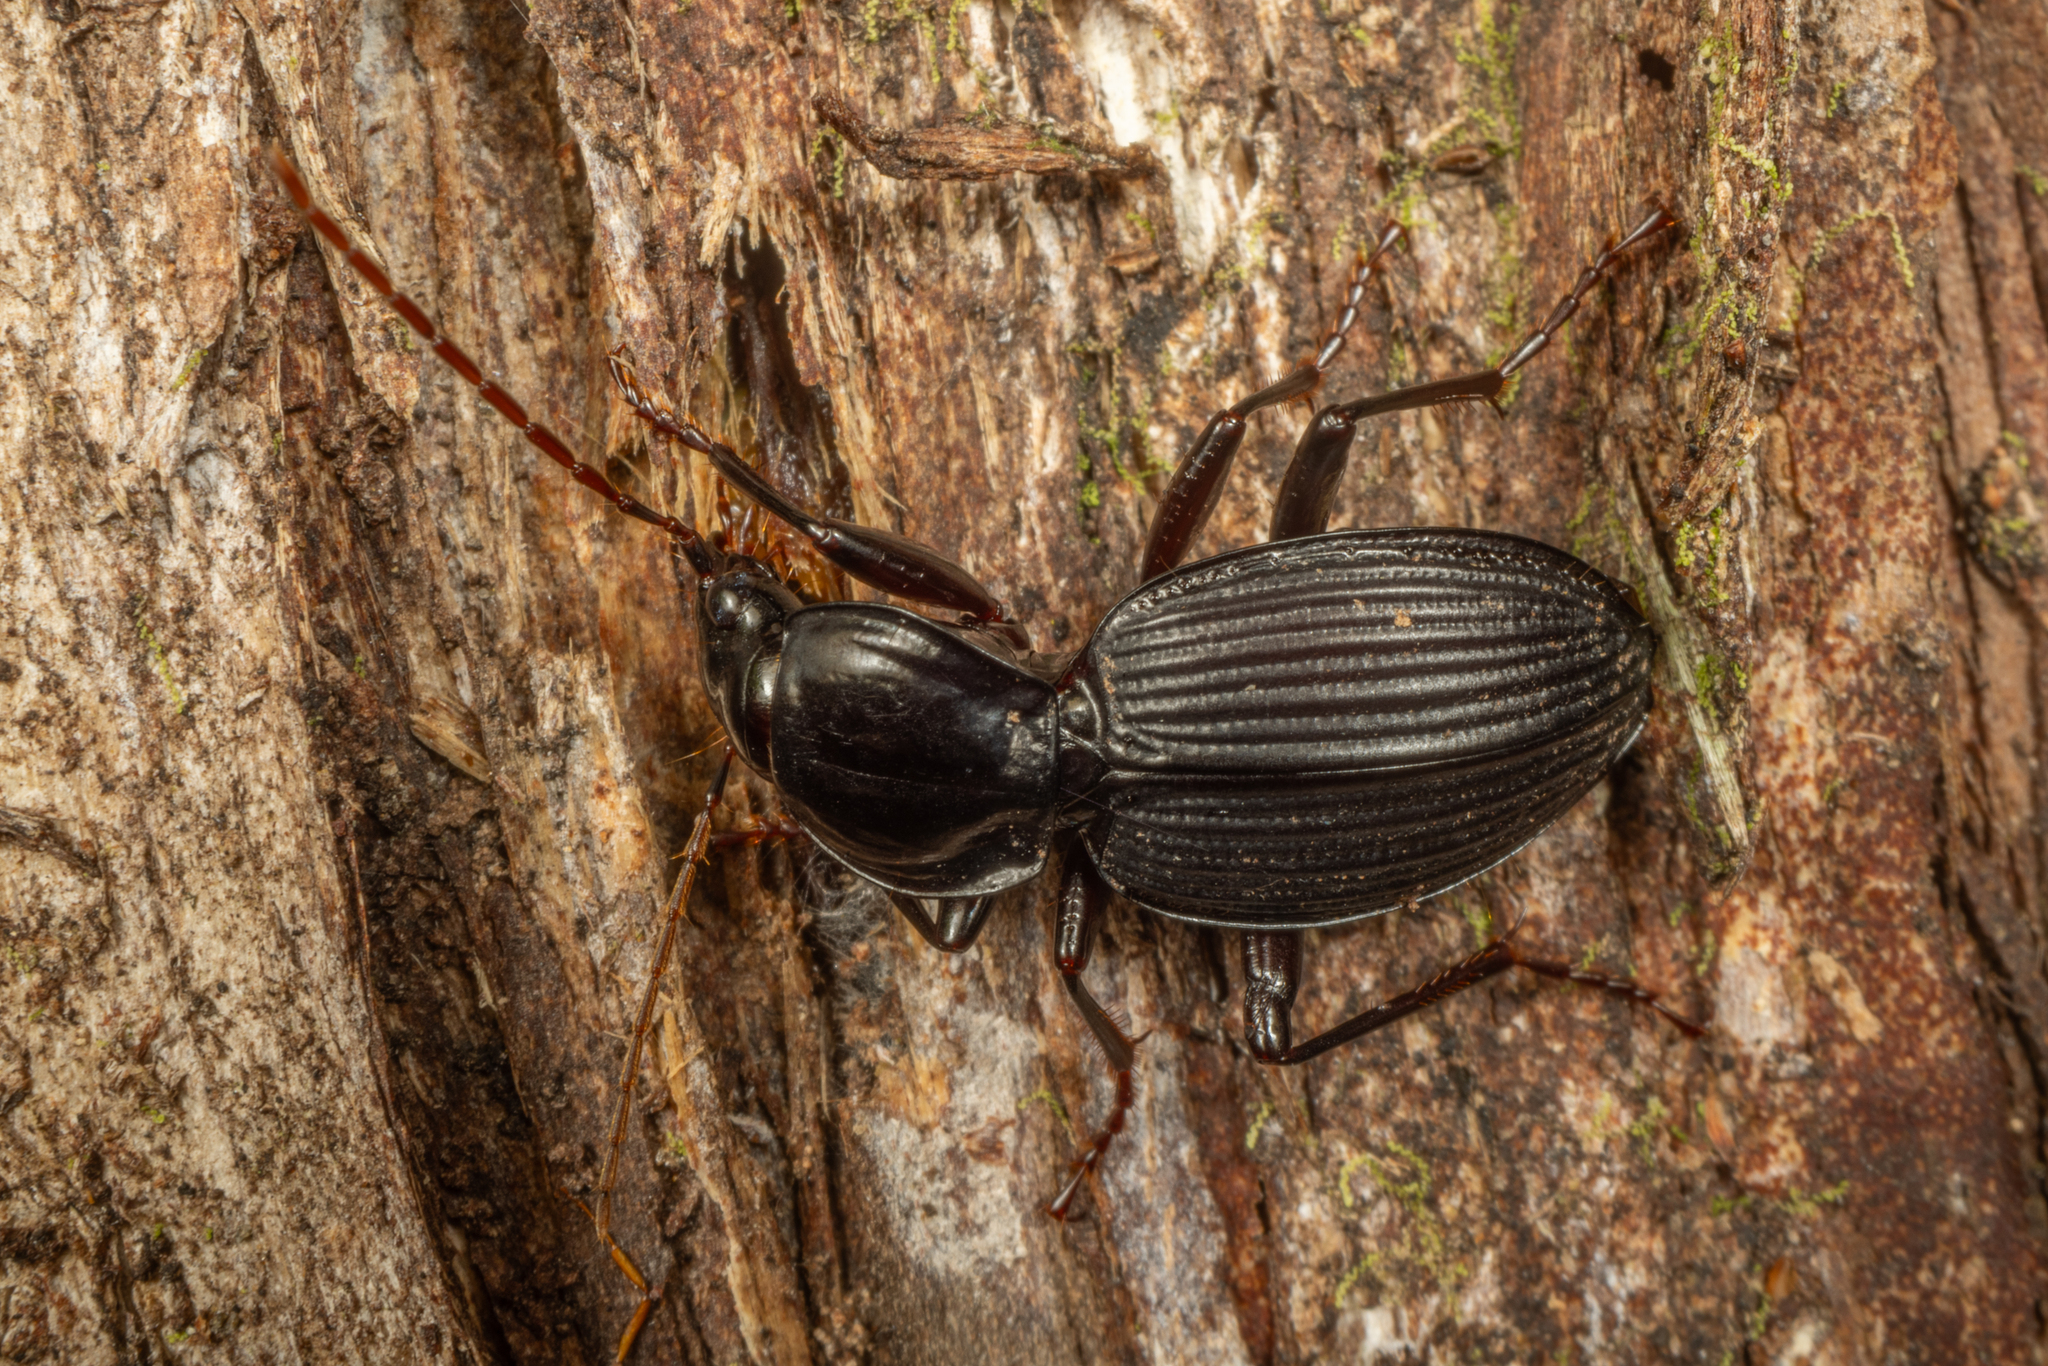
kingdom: Animalia
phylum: Arthropoda
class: Insecta
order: Coleoptera
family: Carabidae
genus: Kupeplatynus
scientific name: Kupeplatynus lucifugus
